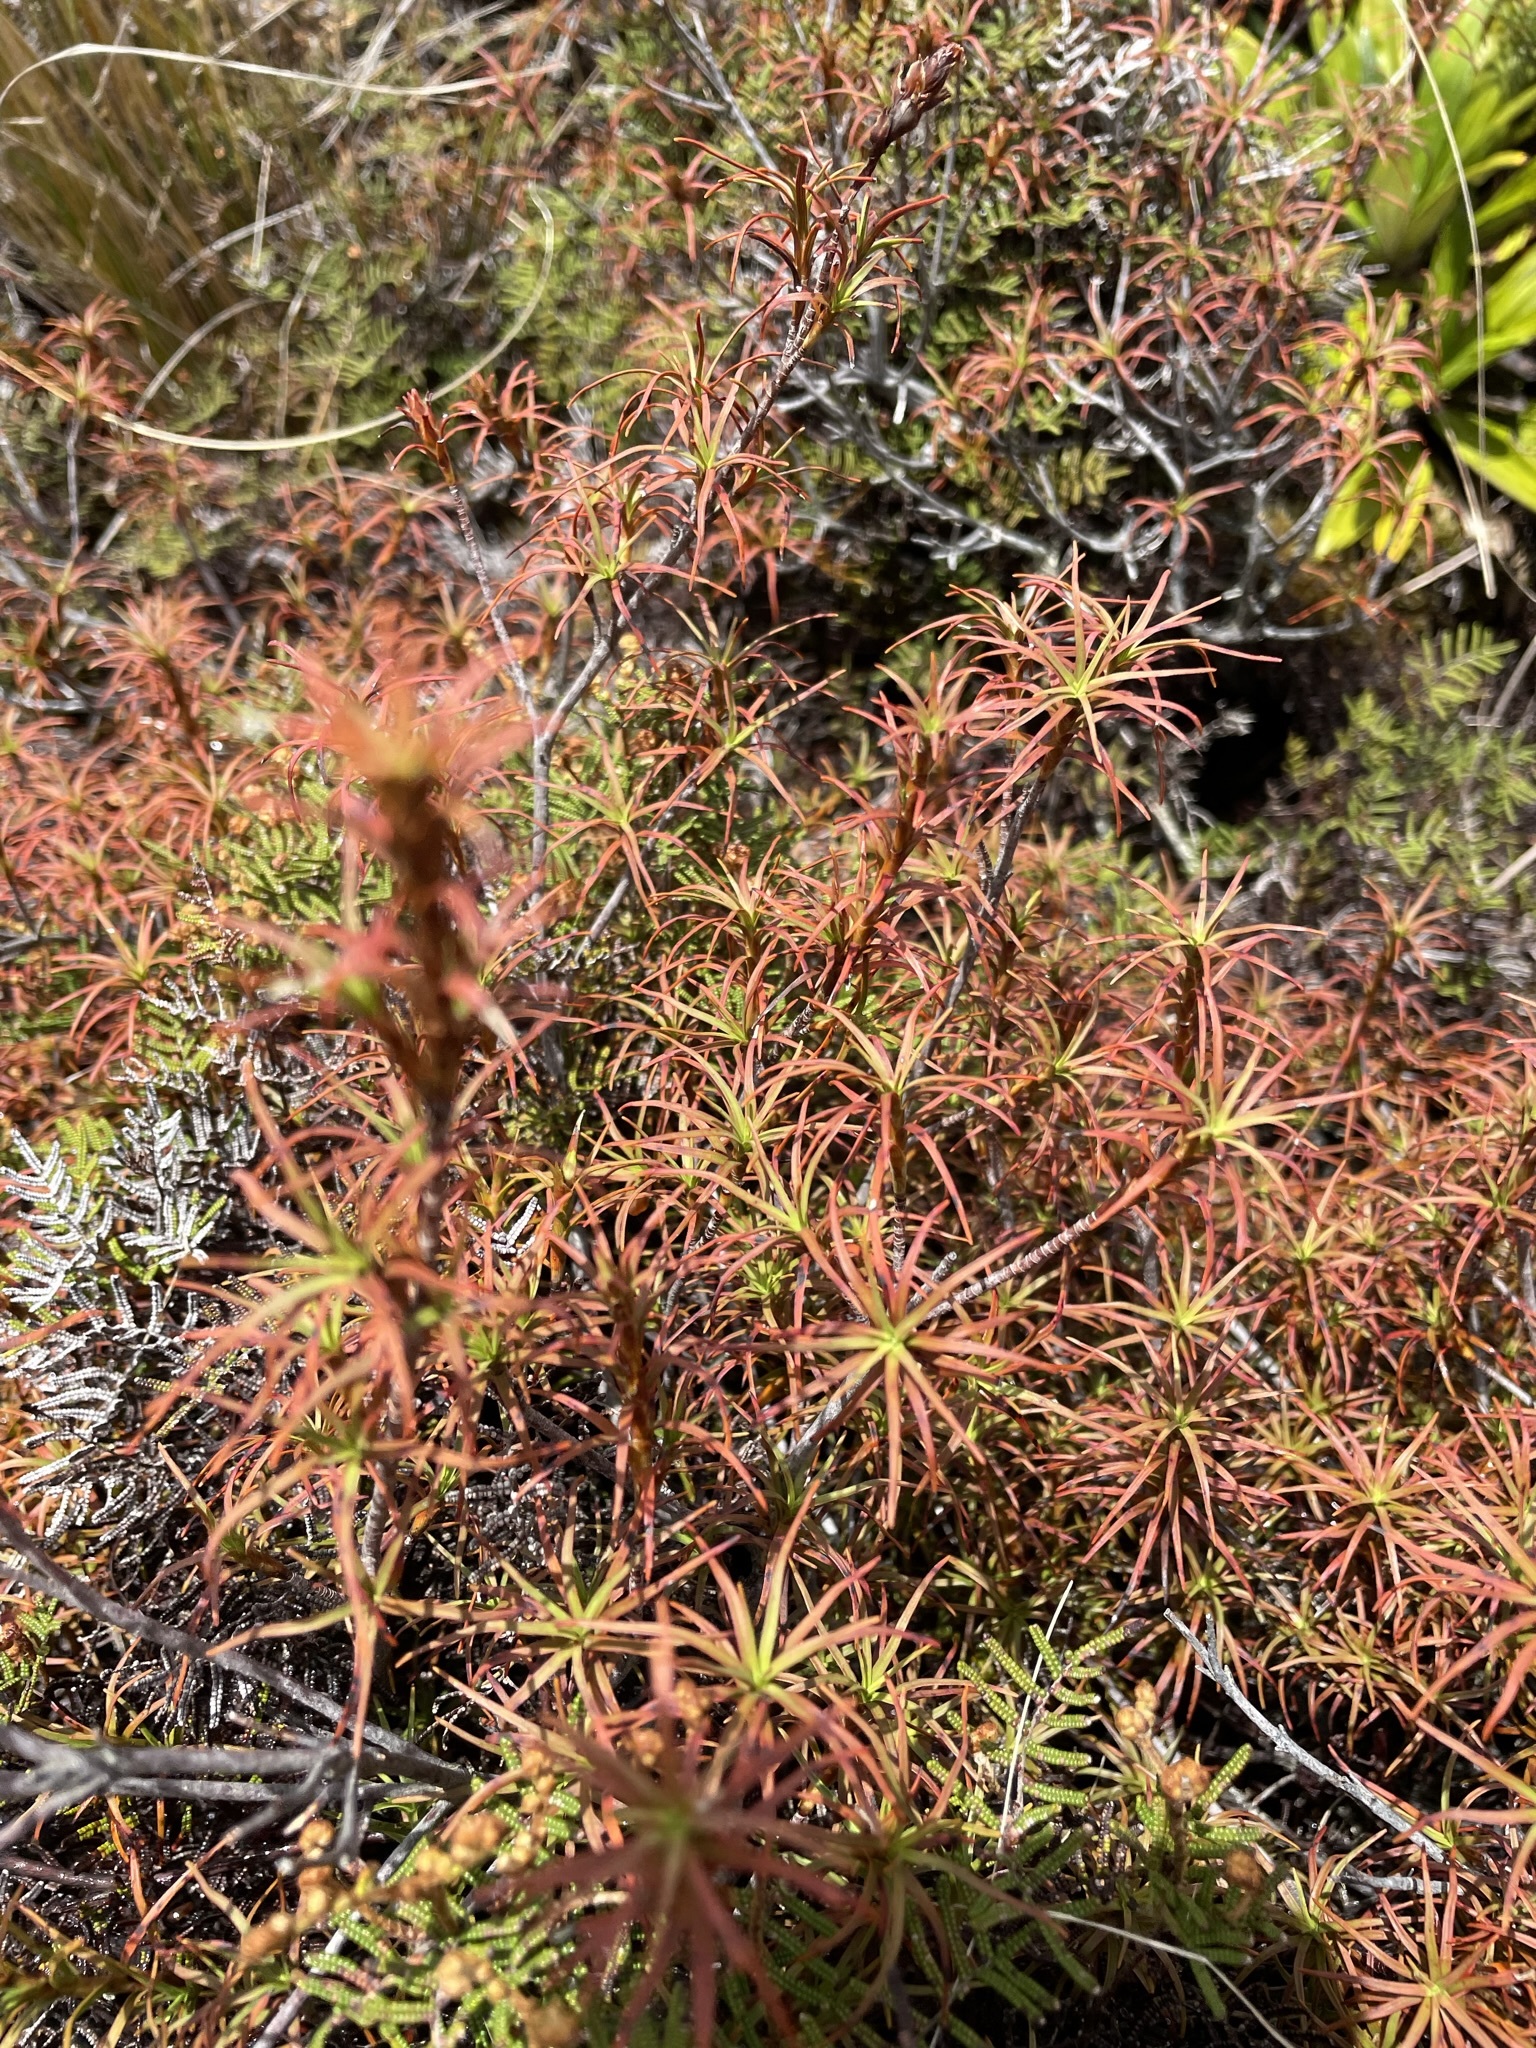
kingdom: Plantae
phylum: Tracheophyta
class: Magnoliopsida
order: Ericales
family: Ericaceae
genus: Dracophyllum
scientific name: Dracophyllum recurvum
